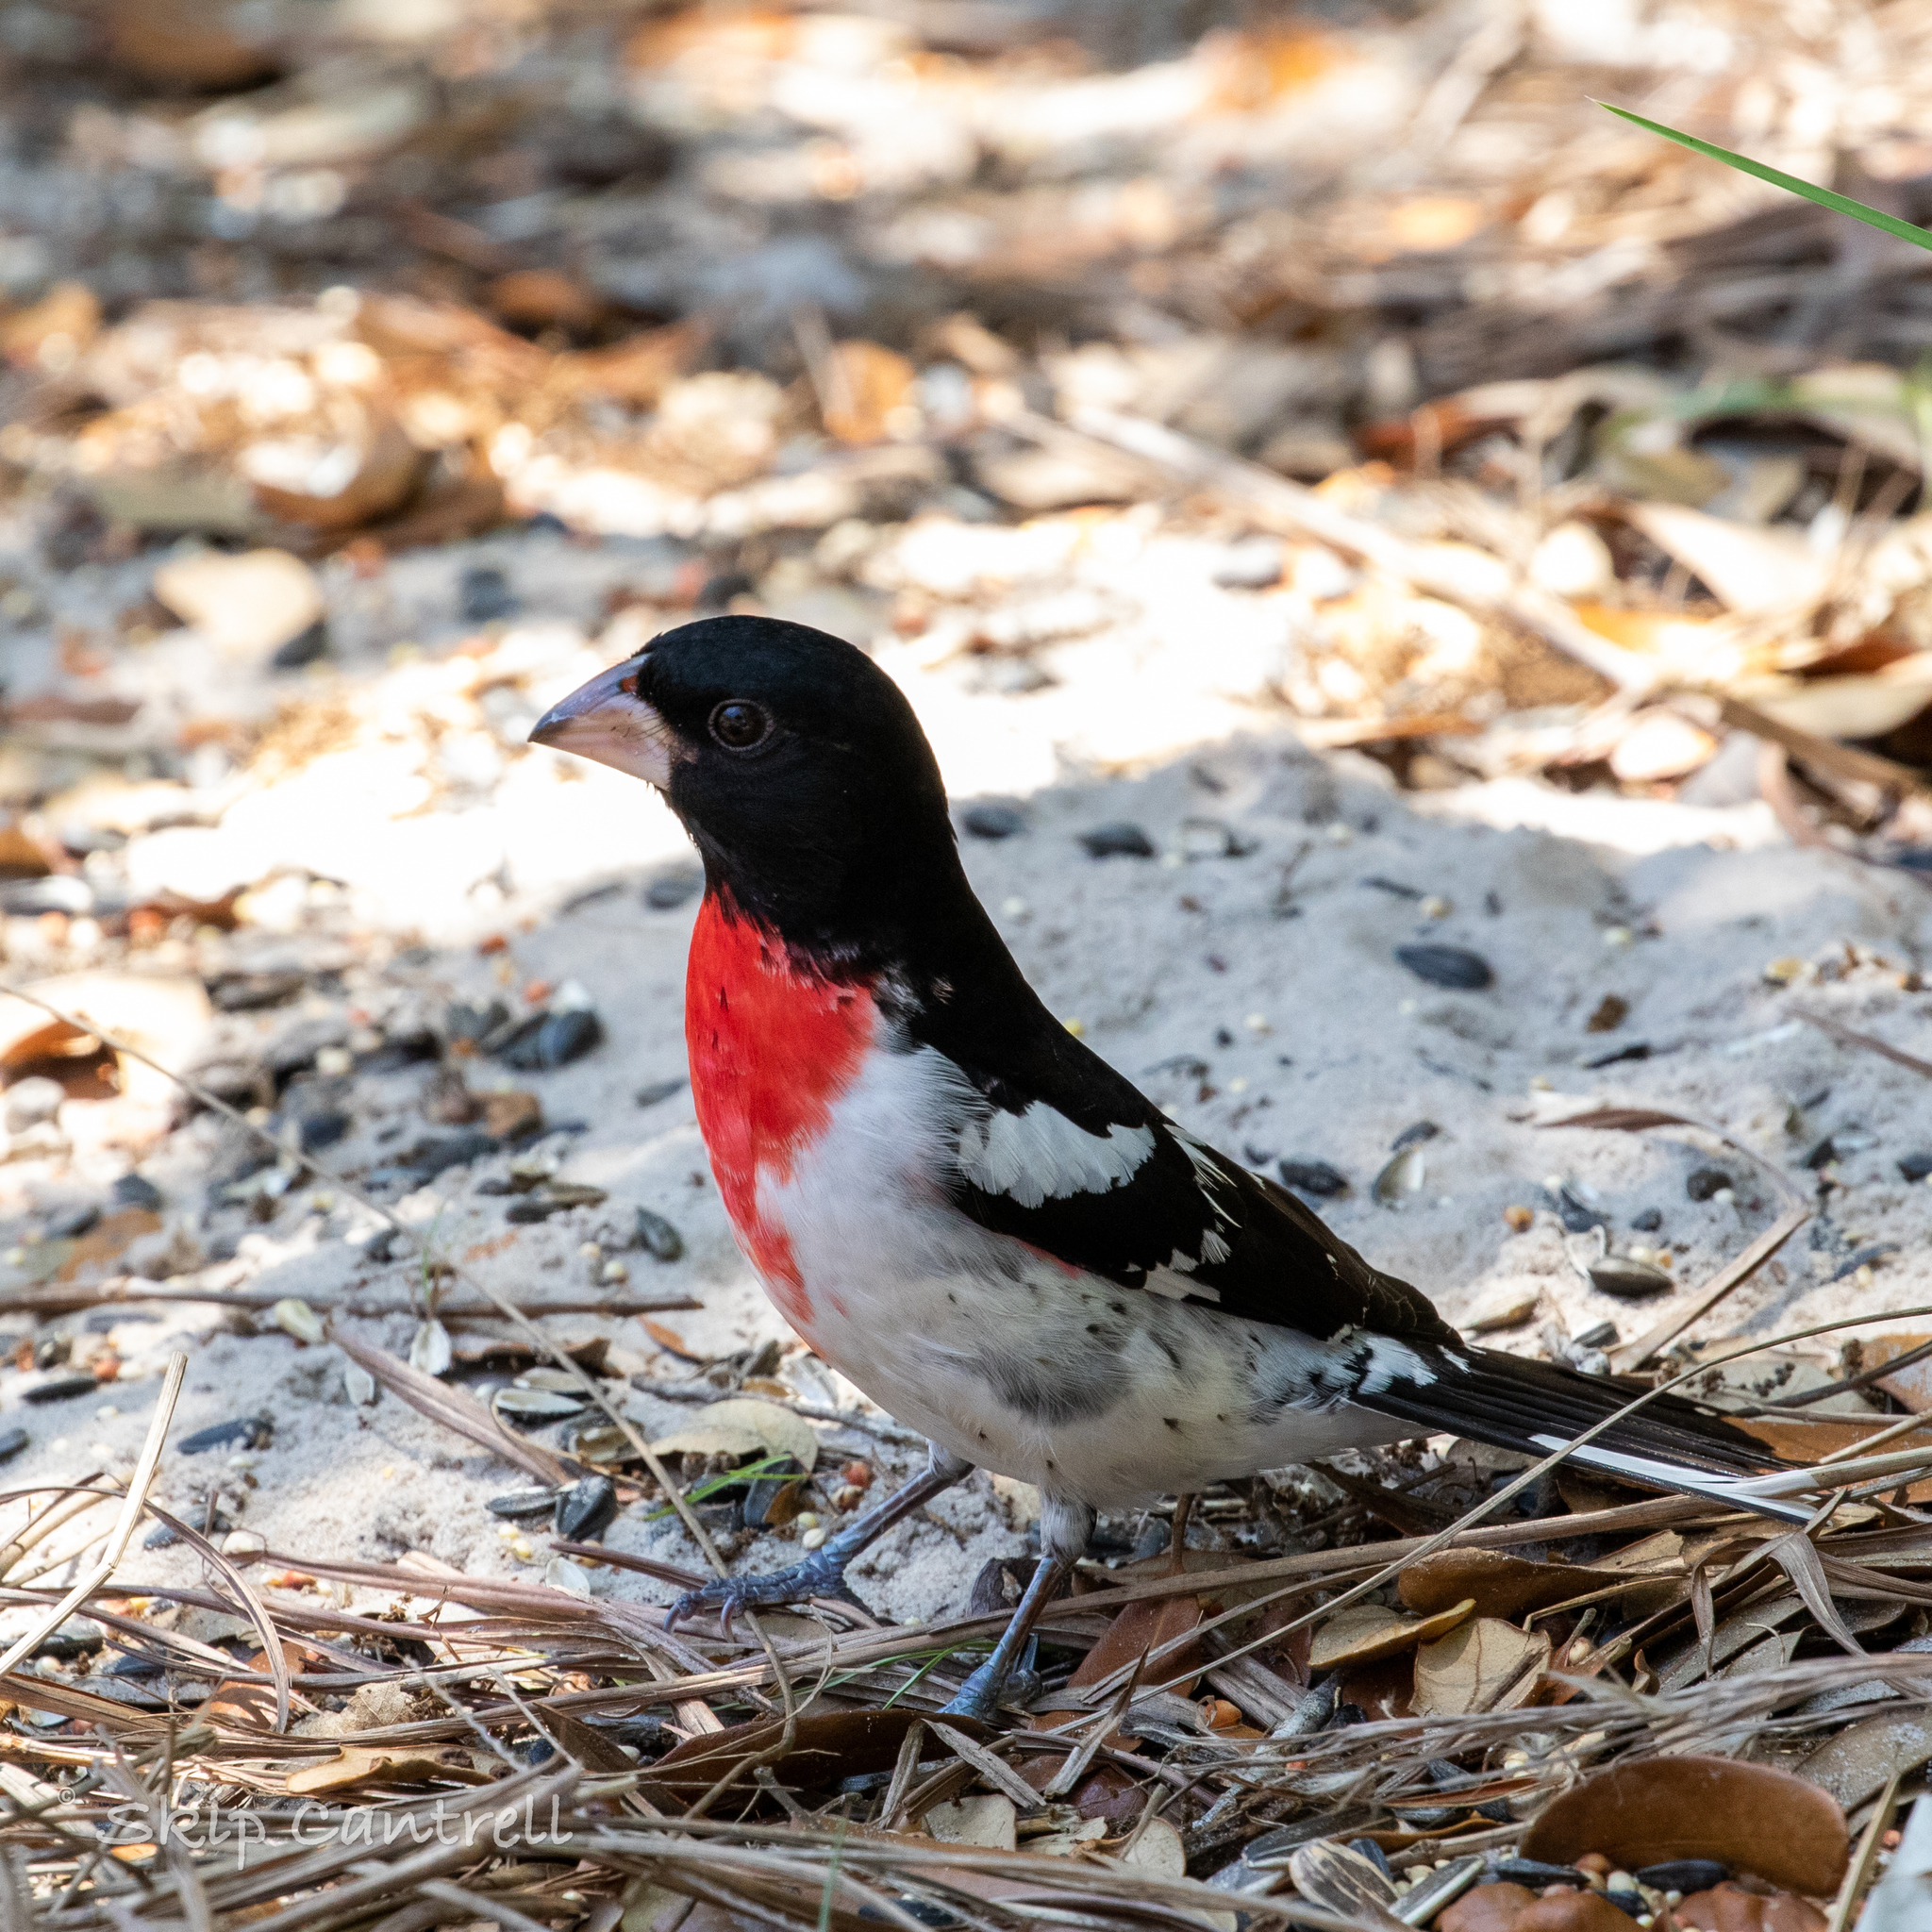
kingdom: Animalia
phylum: Chordata
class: Aves
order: Passeriformes
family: Cardinalidae
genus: Pheucticus
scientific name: Pheucticus ludovicianus
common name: Rose-breasted grosbeak
